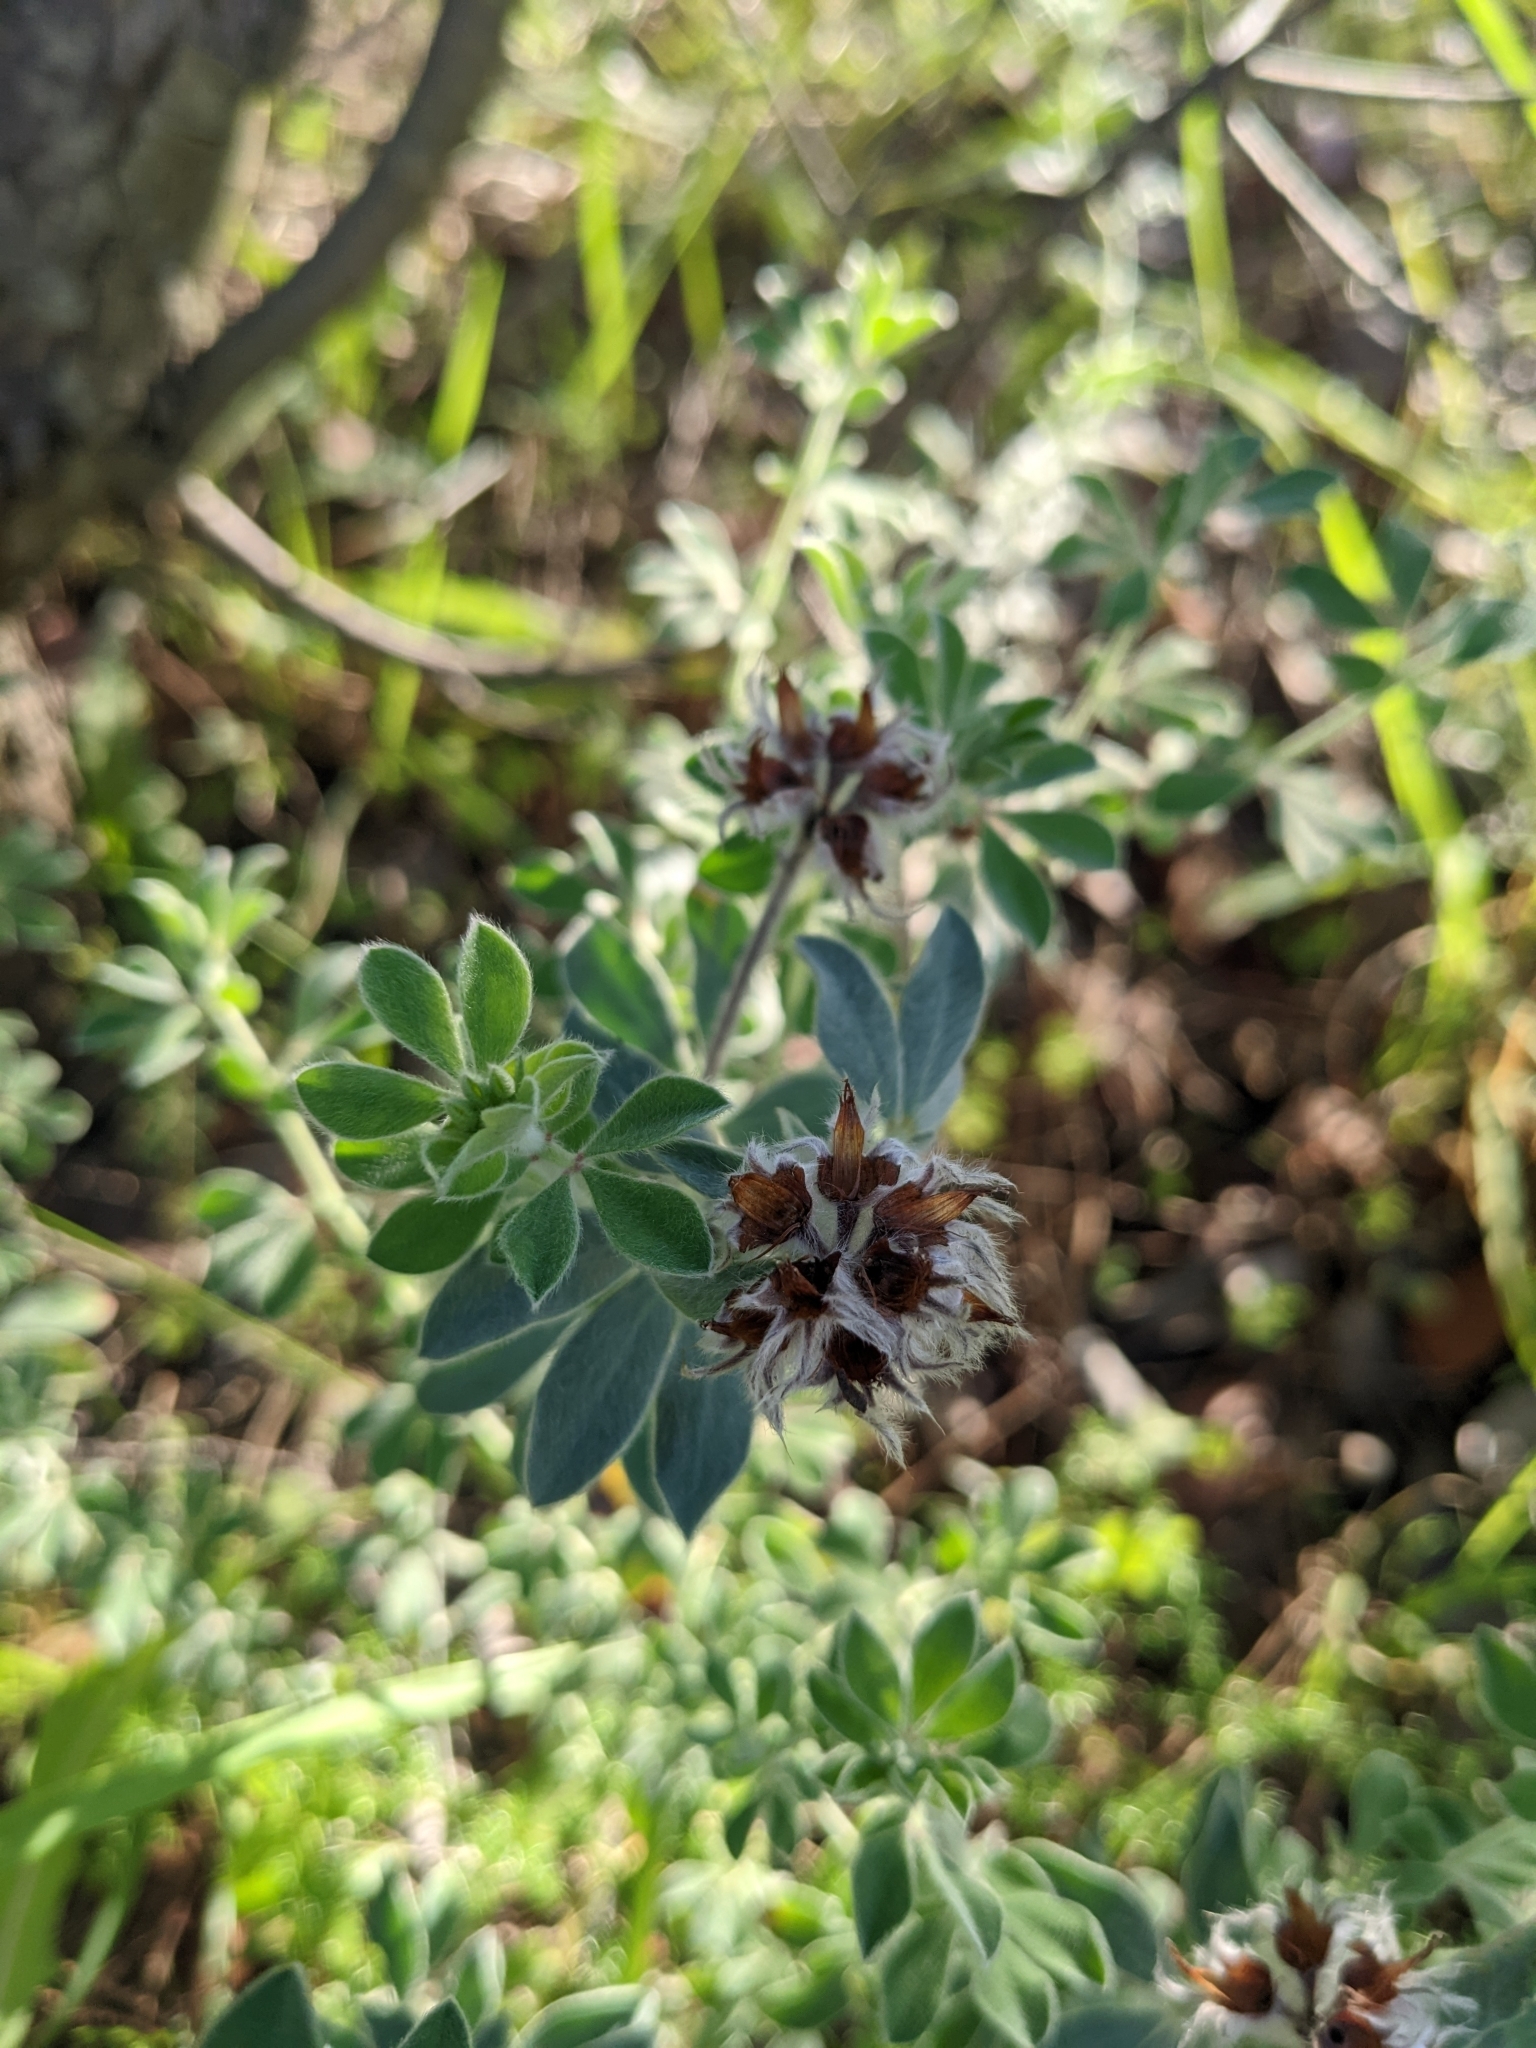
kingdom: Plantae
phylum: Tracheophyta
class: Magnoliopsida
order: Fabales
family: Fabaceae
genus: Lotus
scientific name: Lotus hirsutus
